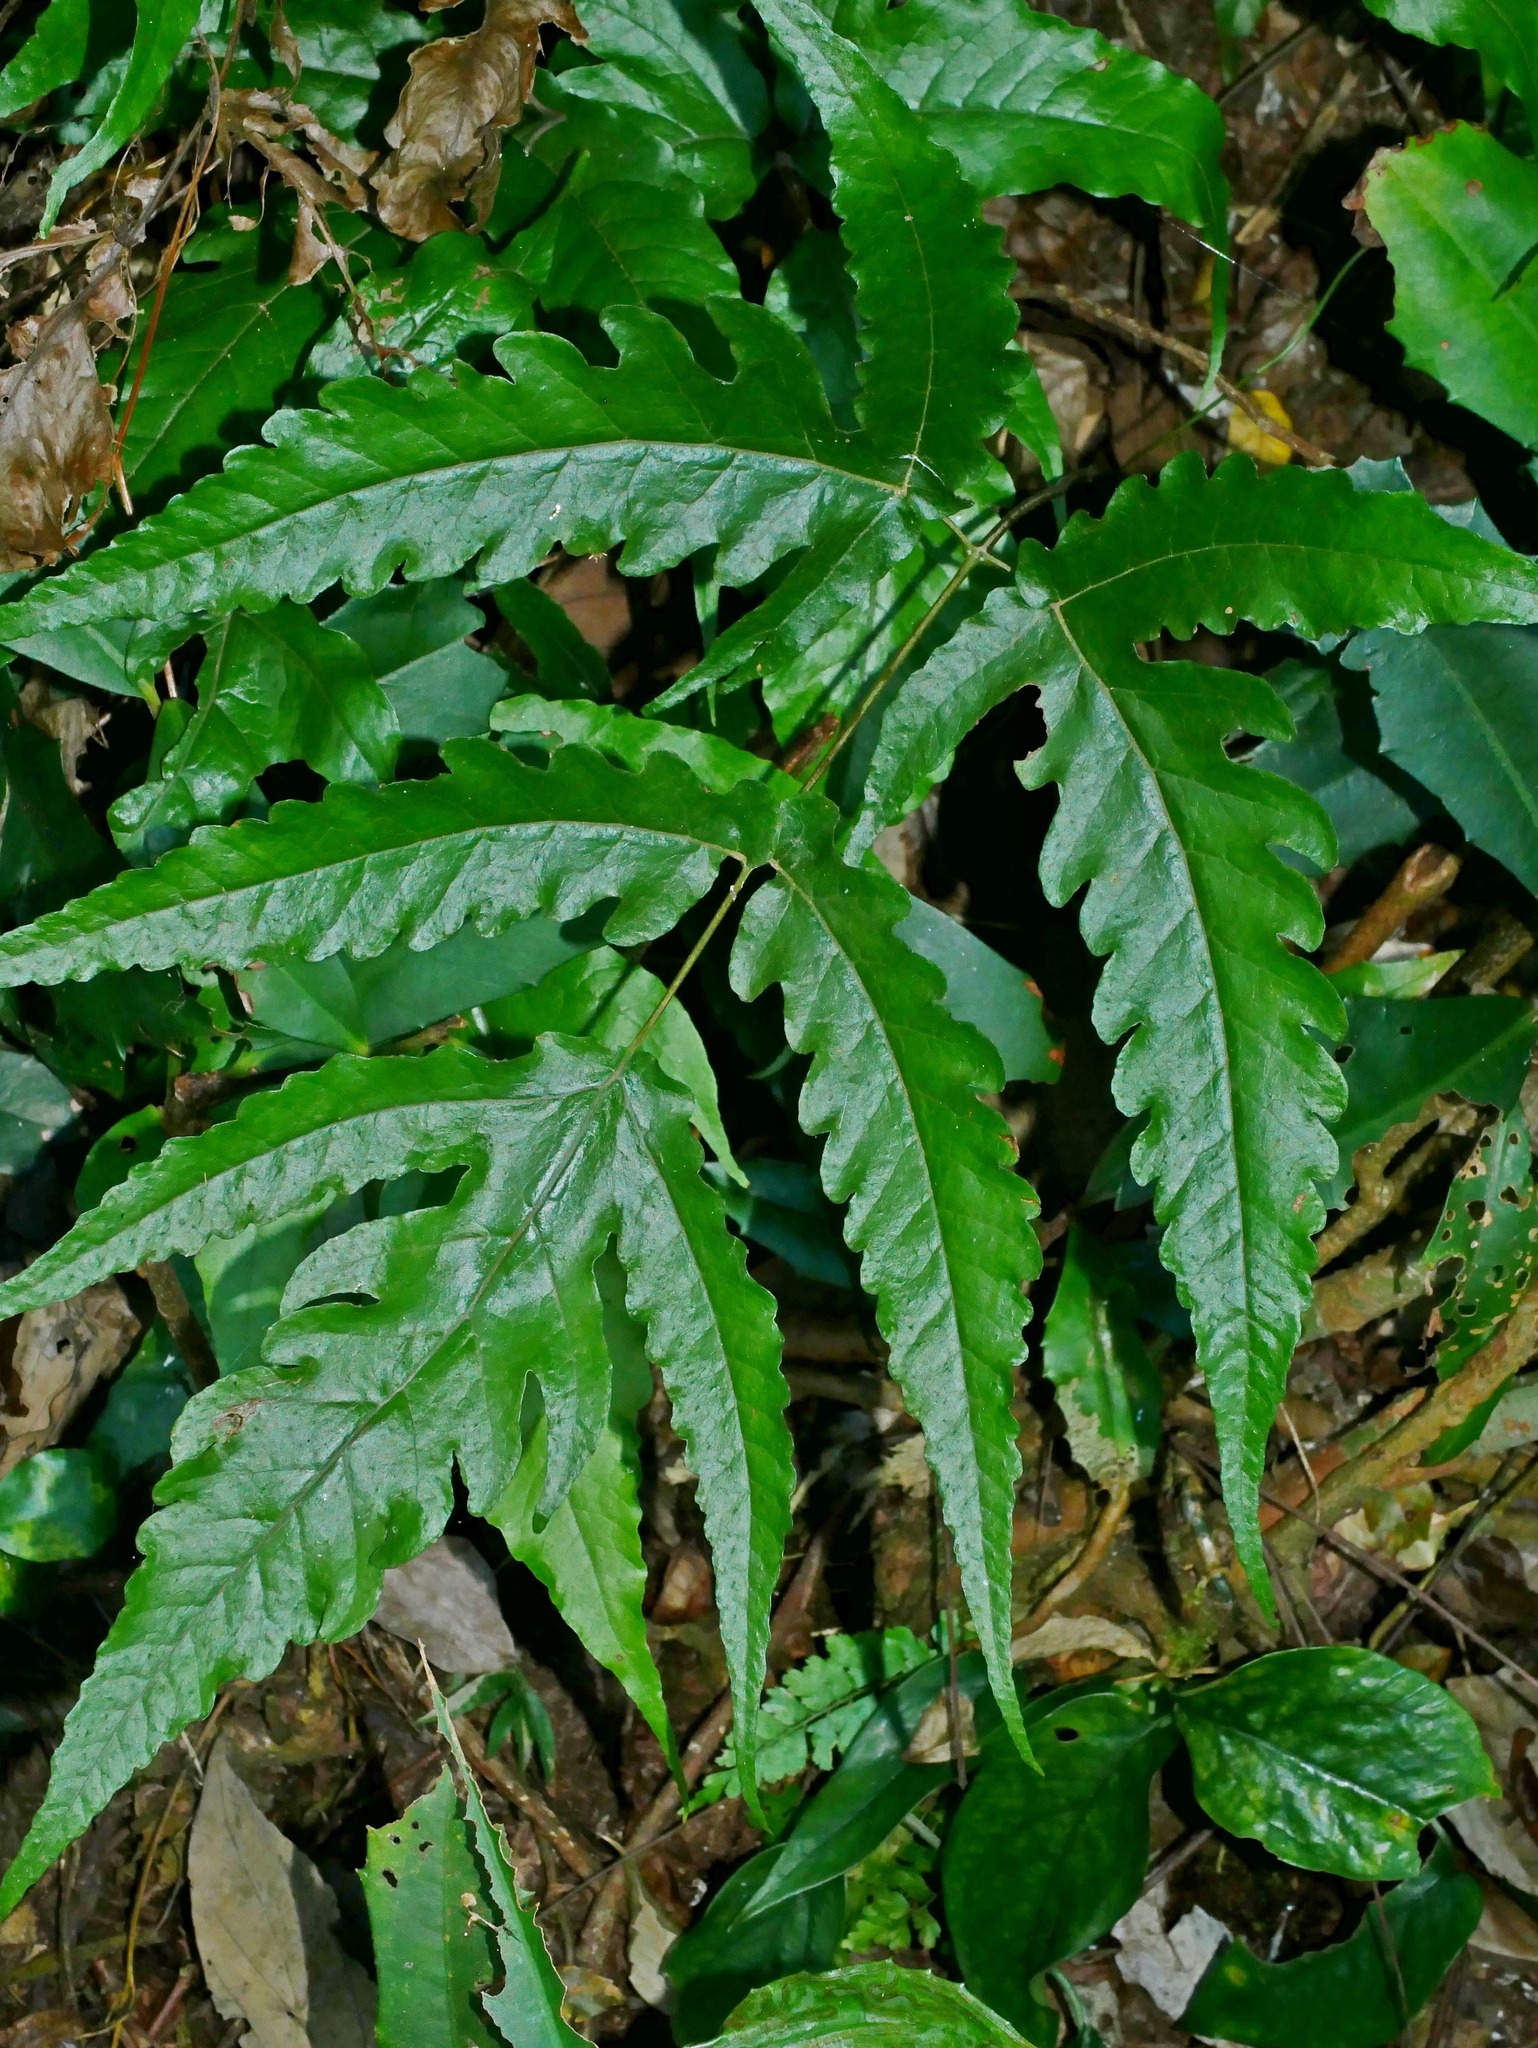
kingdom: Plantae
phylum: Tracheophyta
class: Polypodiopsida
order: Polypodiales
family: Tectariaceae
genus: Tectaria
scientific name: Tectaria subtriphylla
